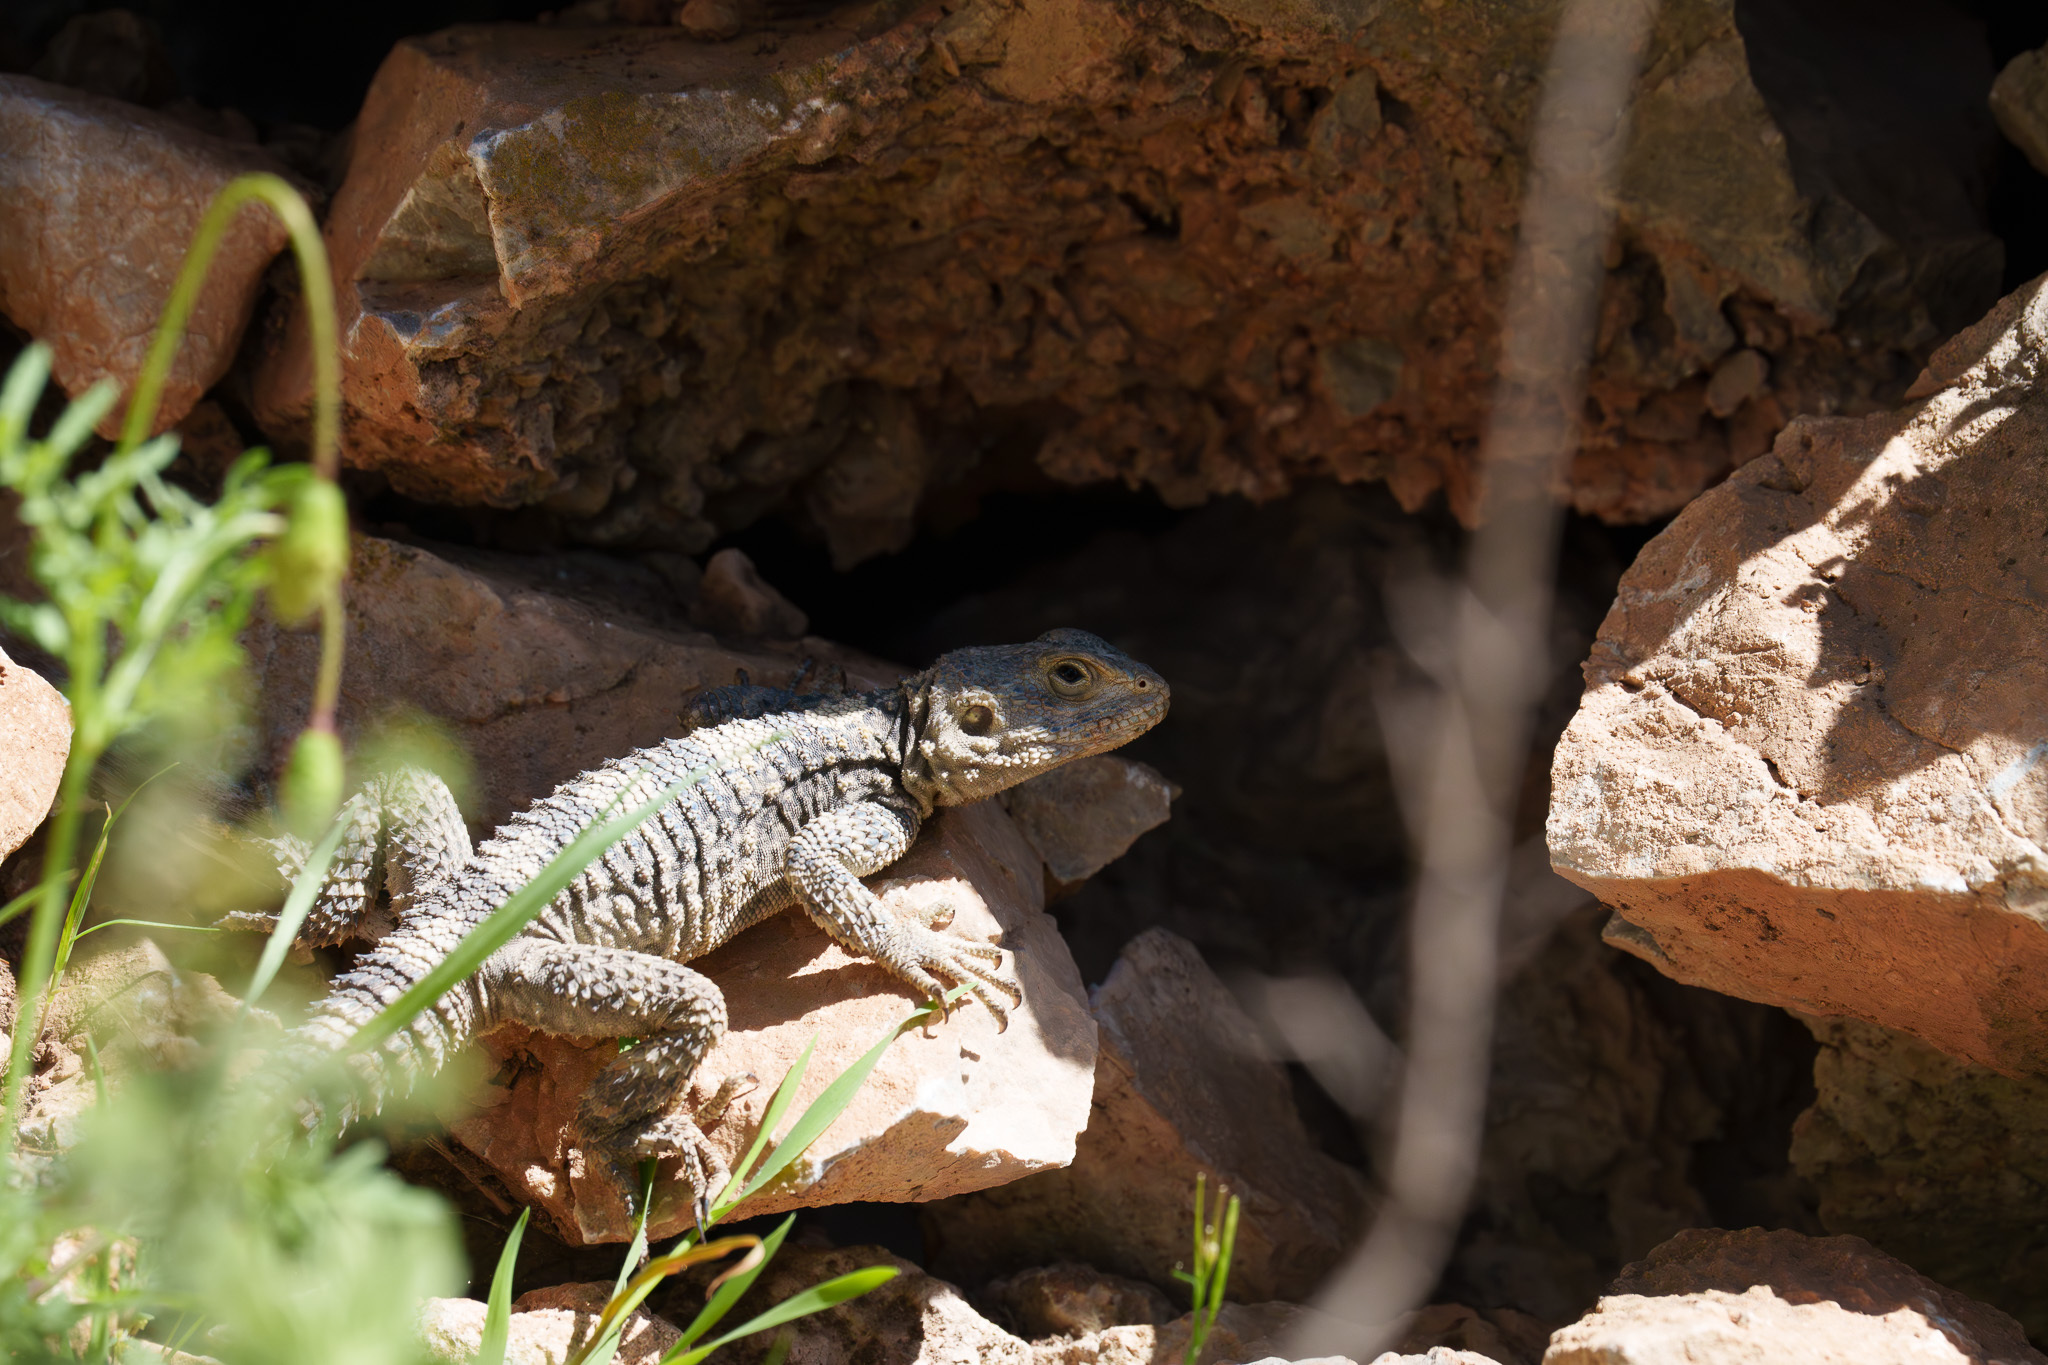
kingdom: Animalia
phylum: Chordata
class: Squamata
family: Agamidae
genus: Stellagama
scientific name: Stellagama stellio
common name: Starred agama
